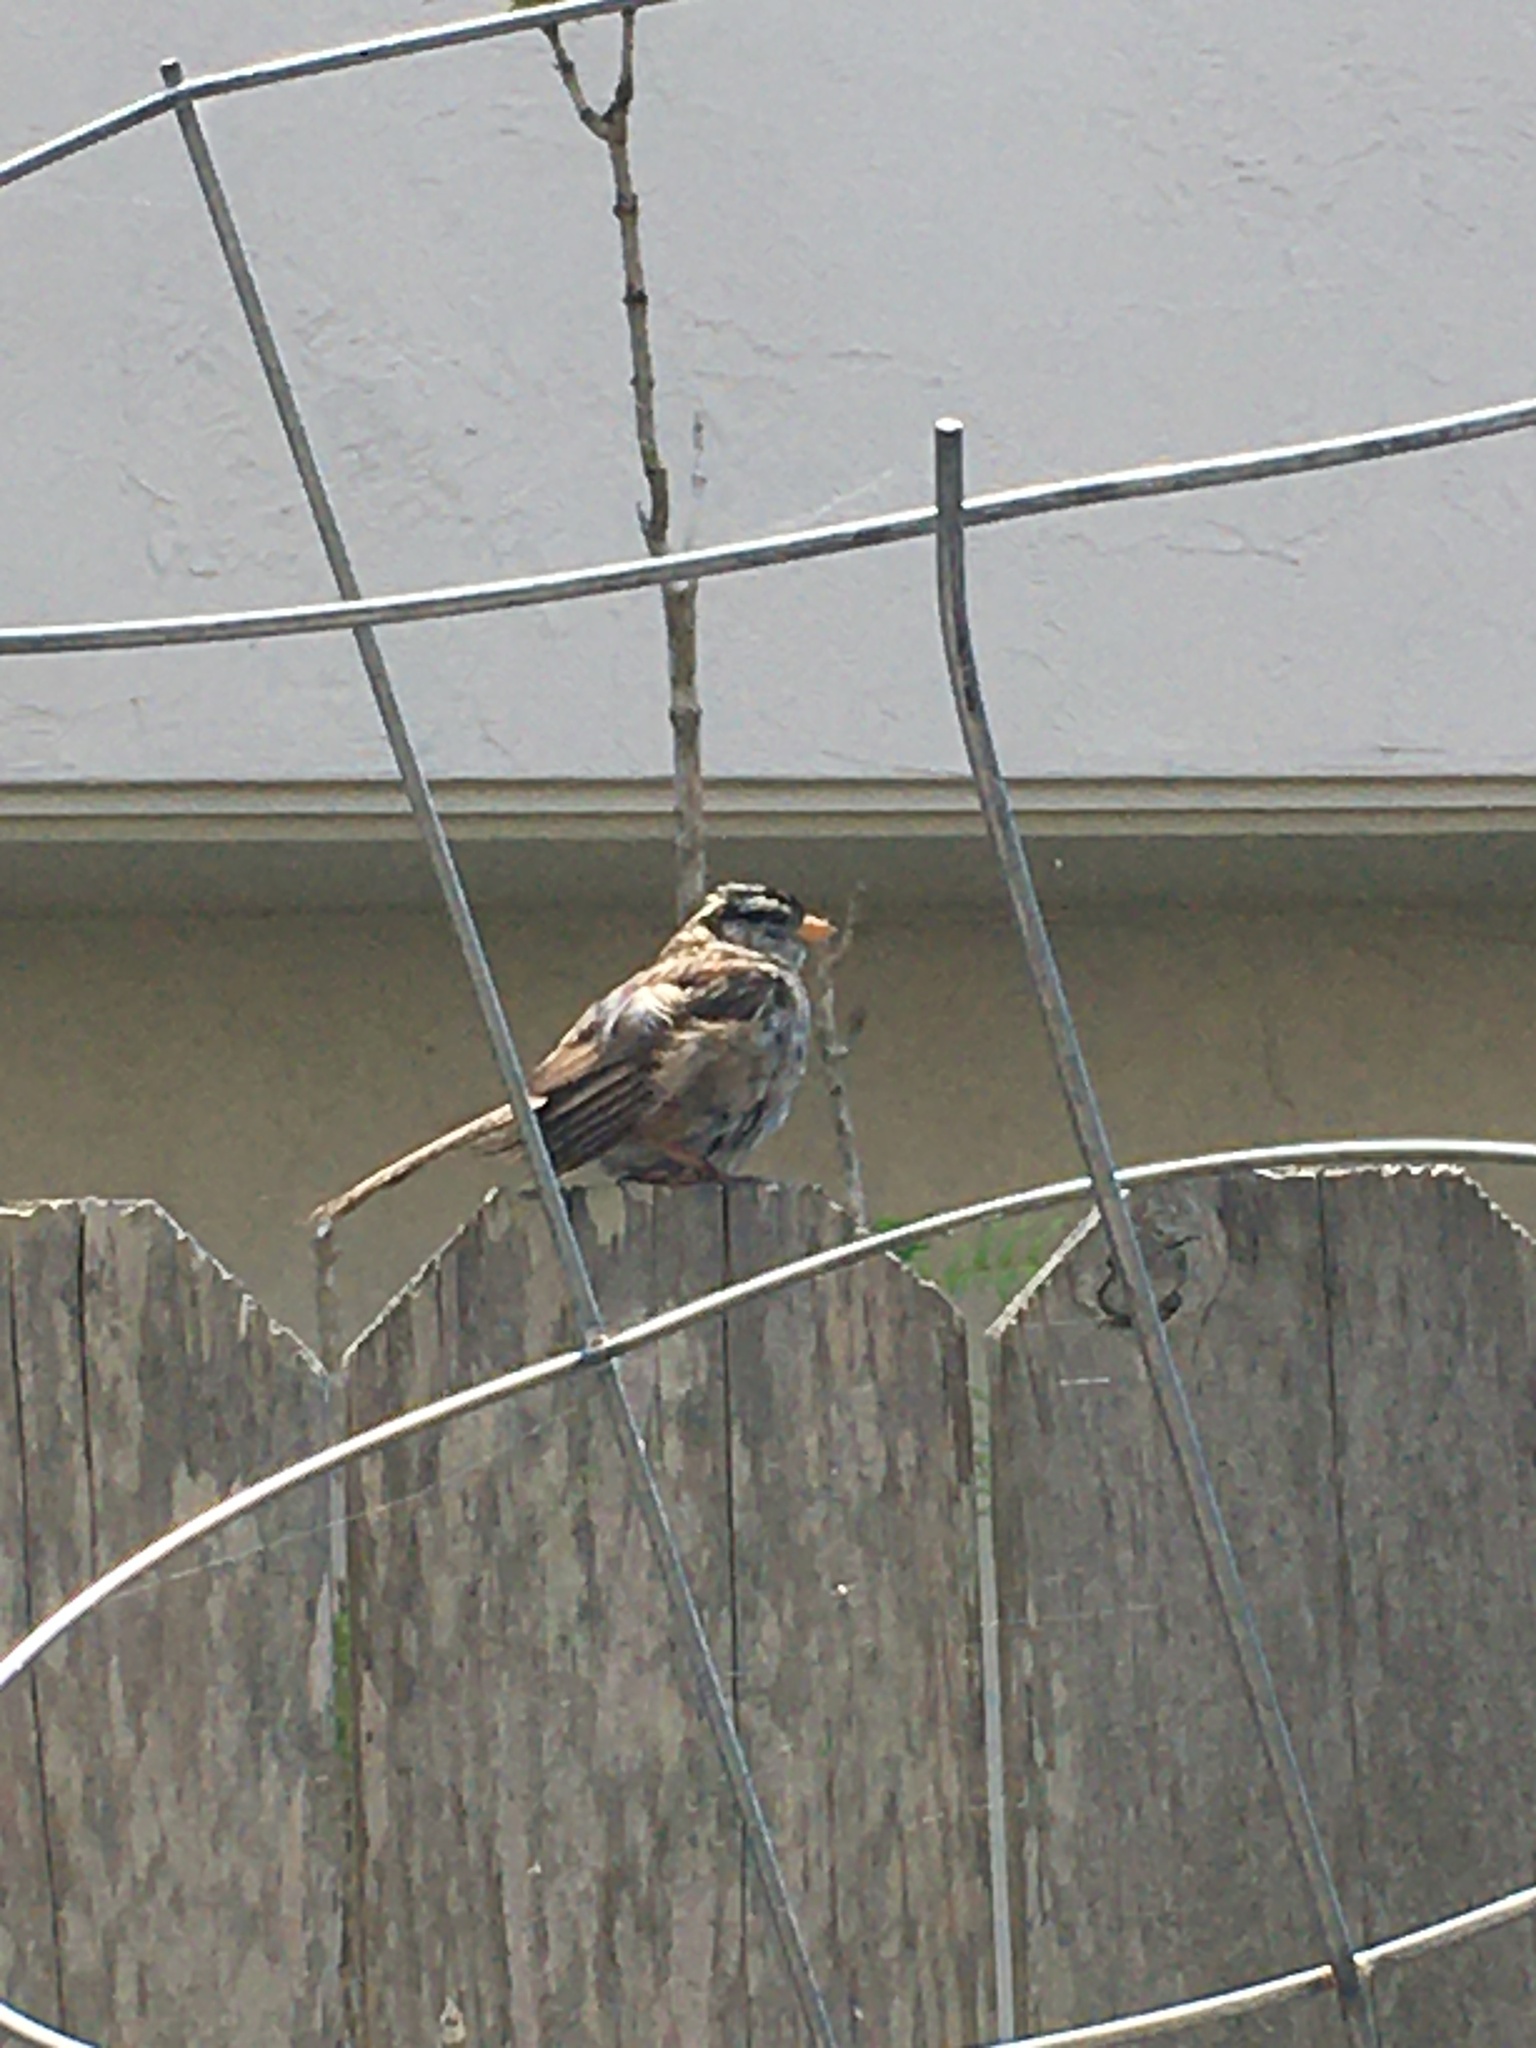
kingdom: Animalia
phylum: Chordata
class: Aves
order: Passeriformes
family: Passerellidae
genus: Zonotrichia
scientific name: Zonotrichia leucophrys
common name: White-crowned sparrow
